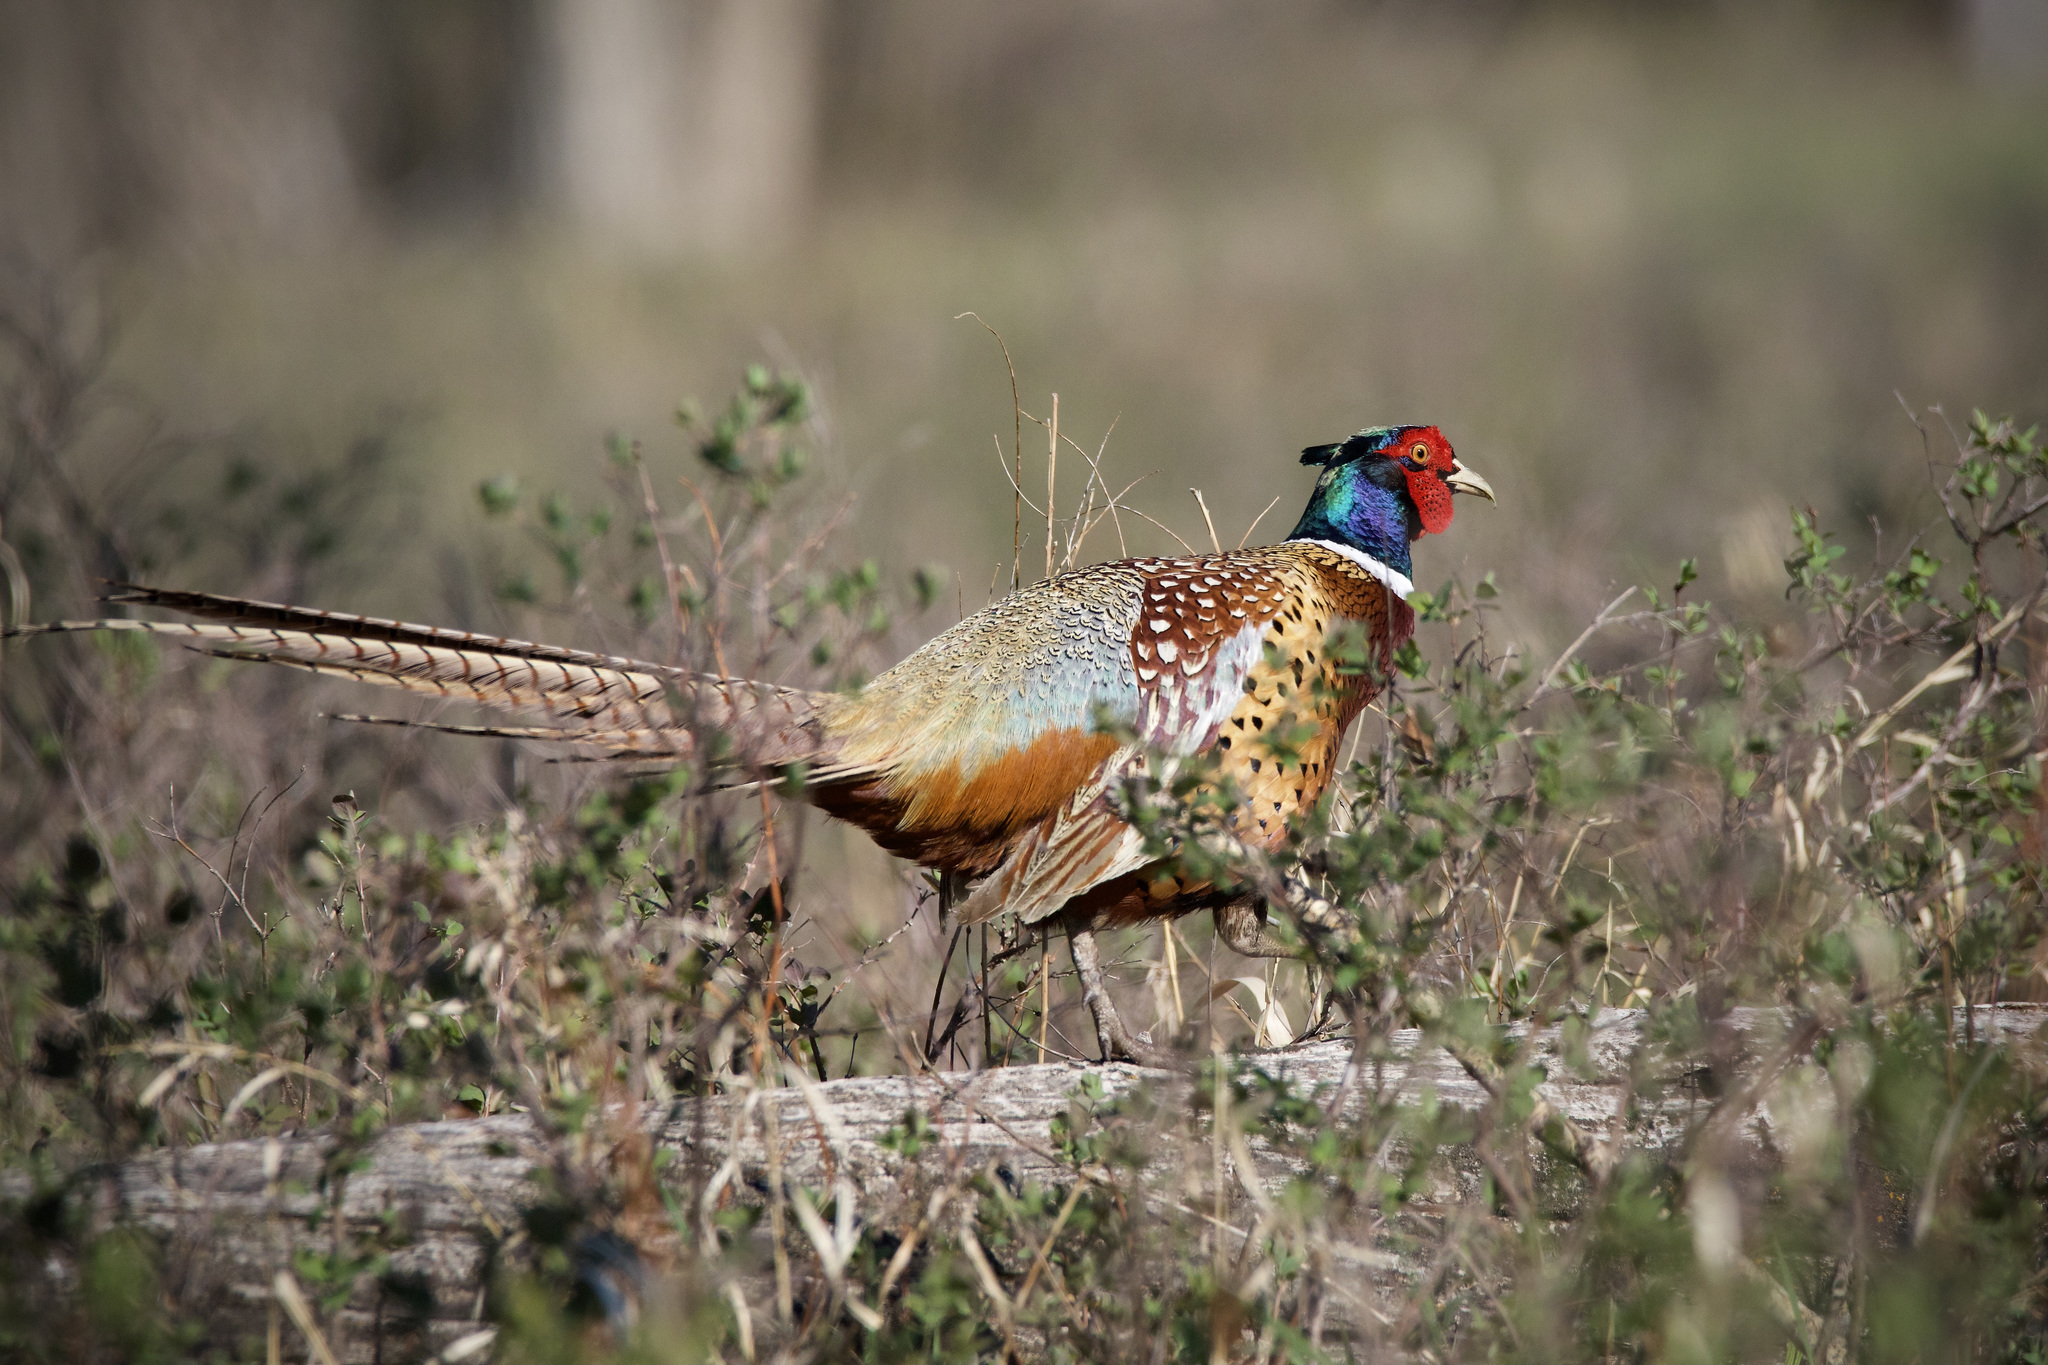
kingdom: Animalia
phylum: Chordata
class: Aves
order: Galliformes
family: Phasianidae
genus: Phasianus
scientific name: Phasianus colchicus
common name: Common pheasant
